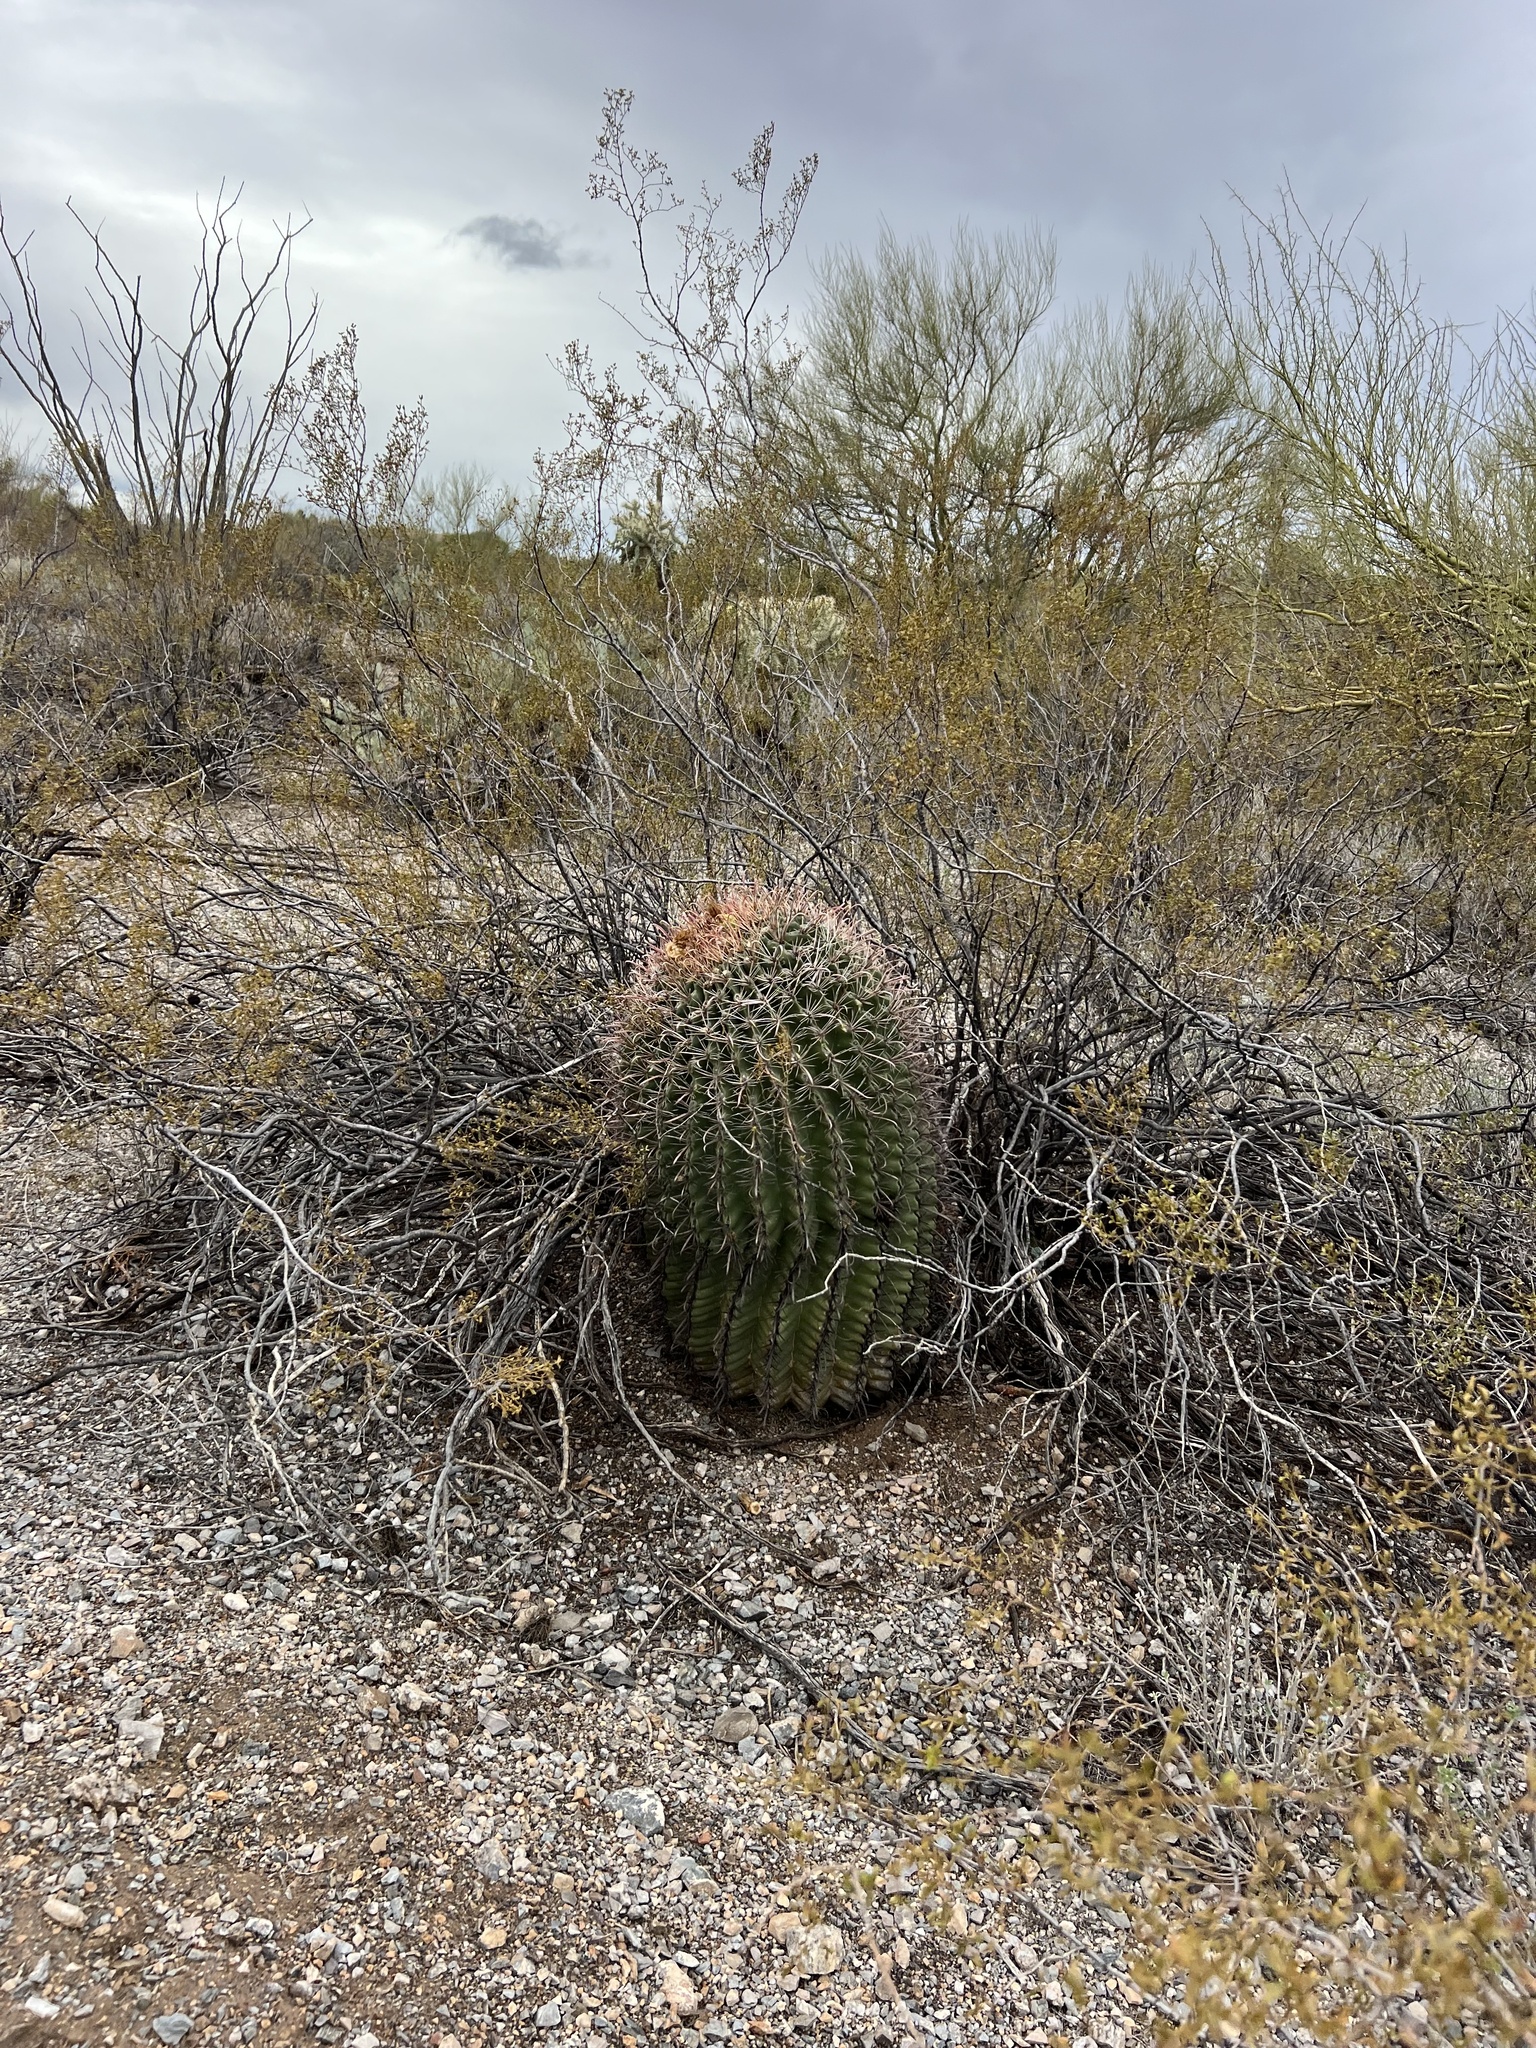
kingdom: Plantae
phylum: Tracheophyta
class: Magnoliopsida
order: Caryophyllales
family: Cactaceae
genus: Ferocactus
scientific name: Ferocactus wislizeni
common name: Candy barrel cactus
